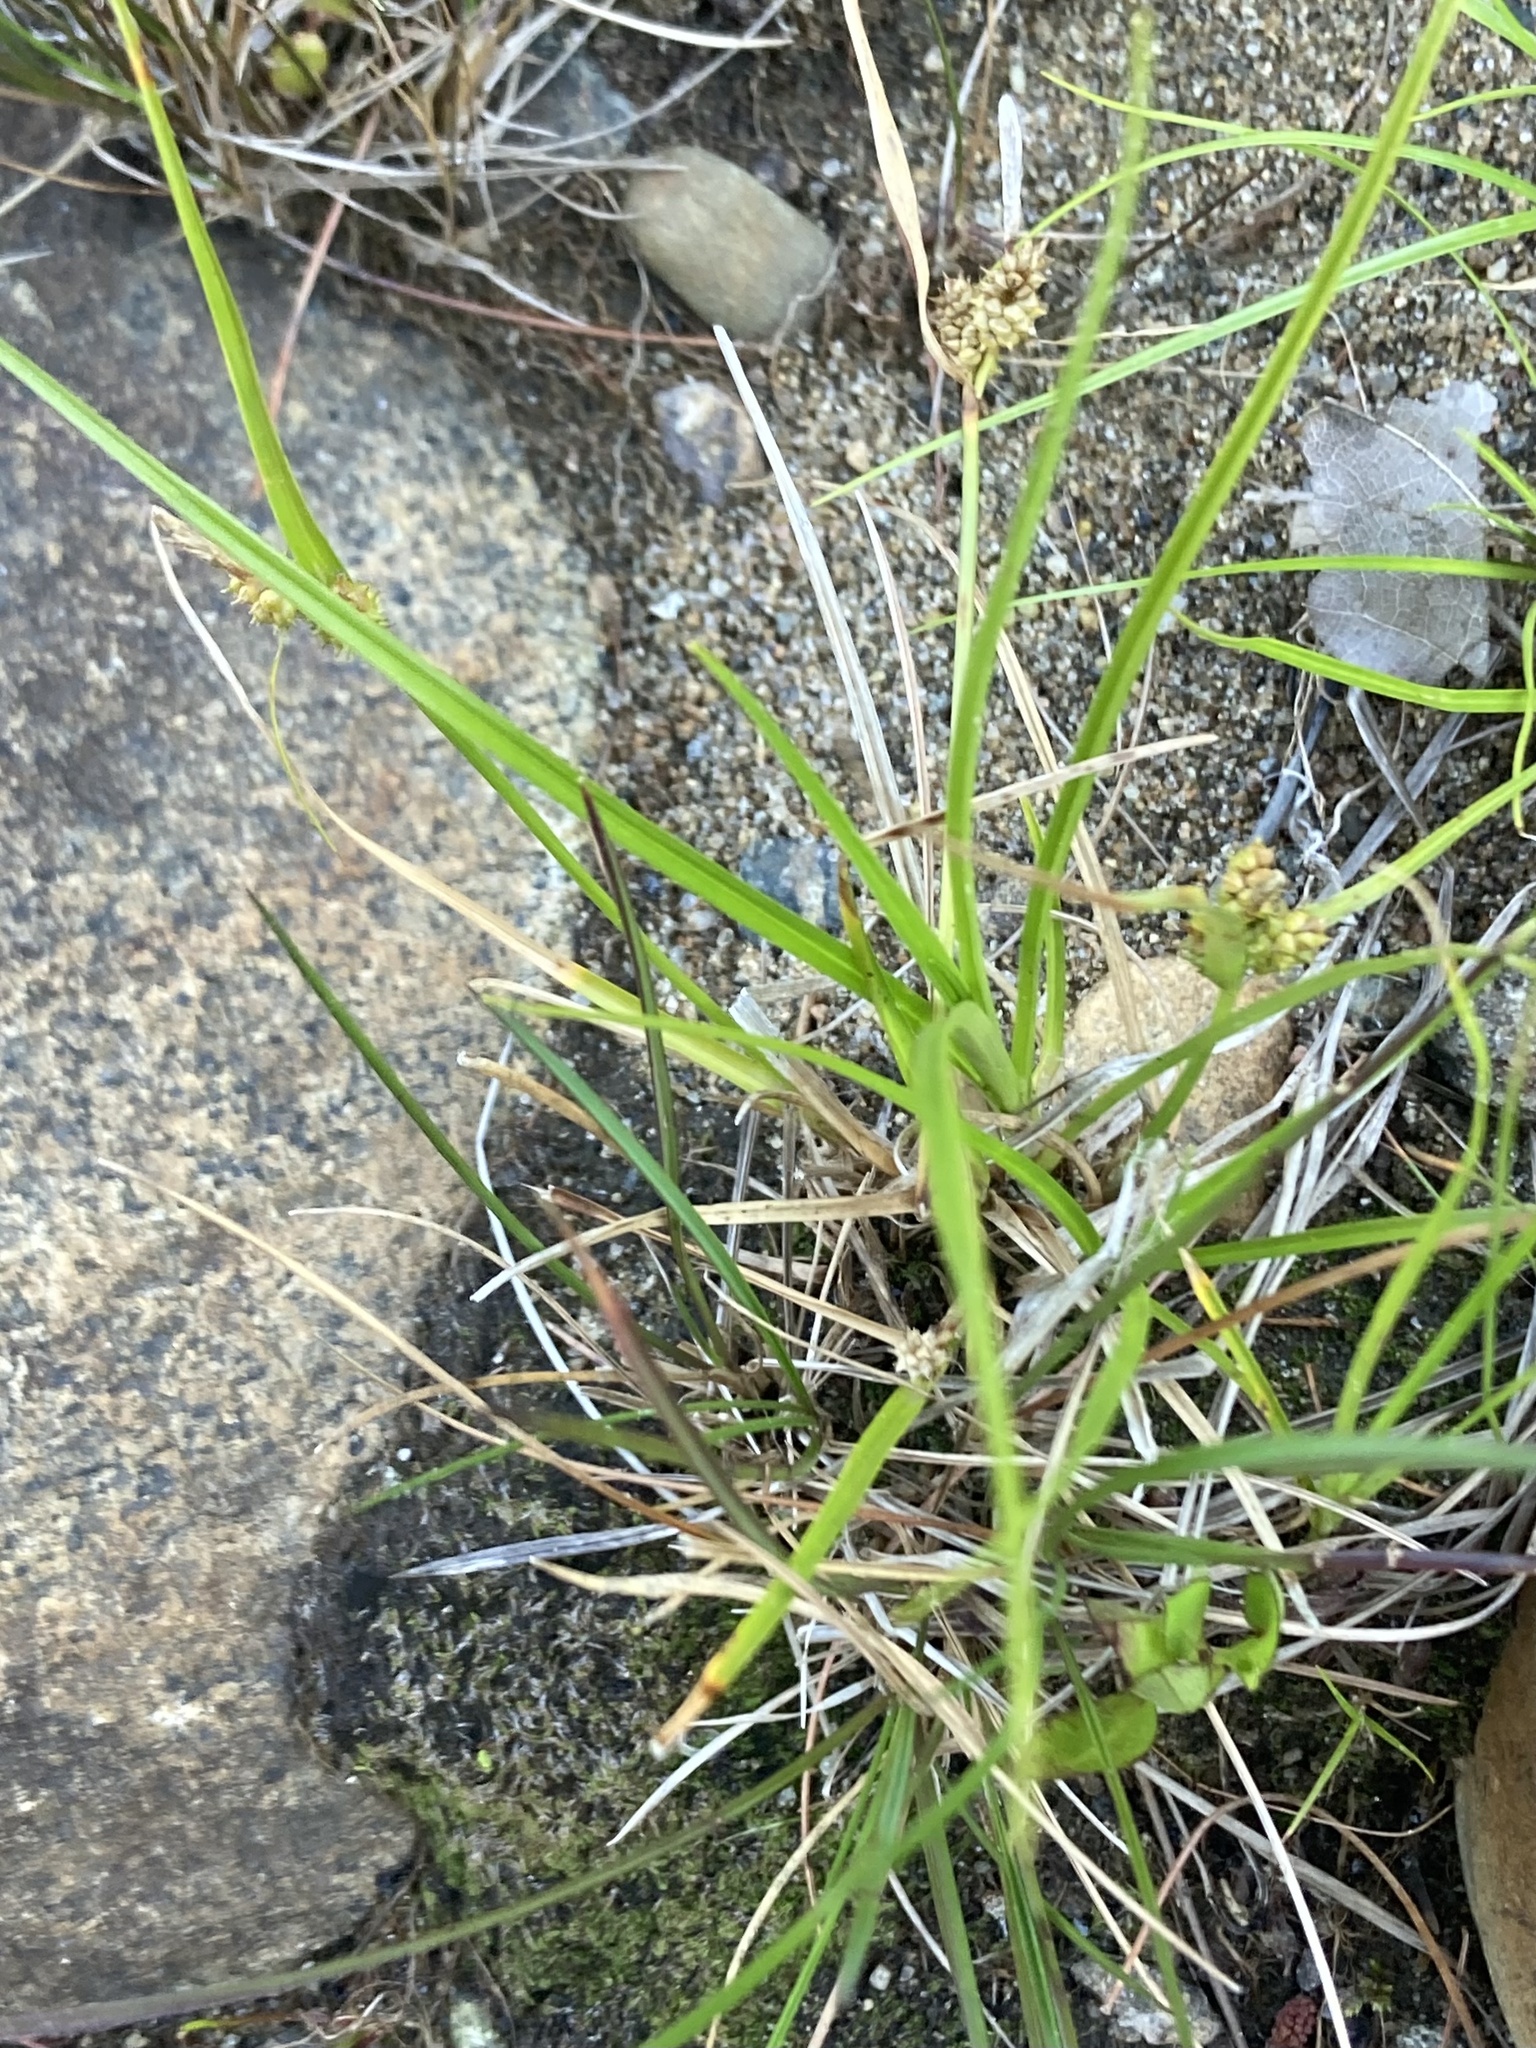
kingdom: Plantae
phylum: Tracheophyta
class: Liliopsida
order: Poales
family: Cyperaceae
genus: Carex
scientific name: Carex
